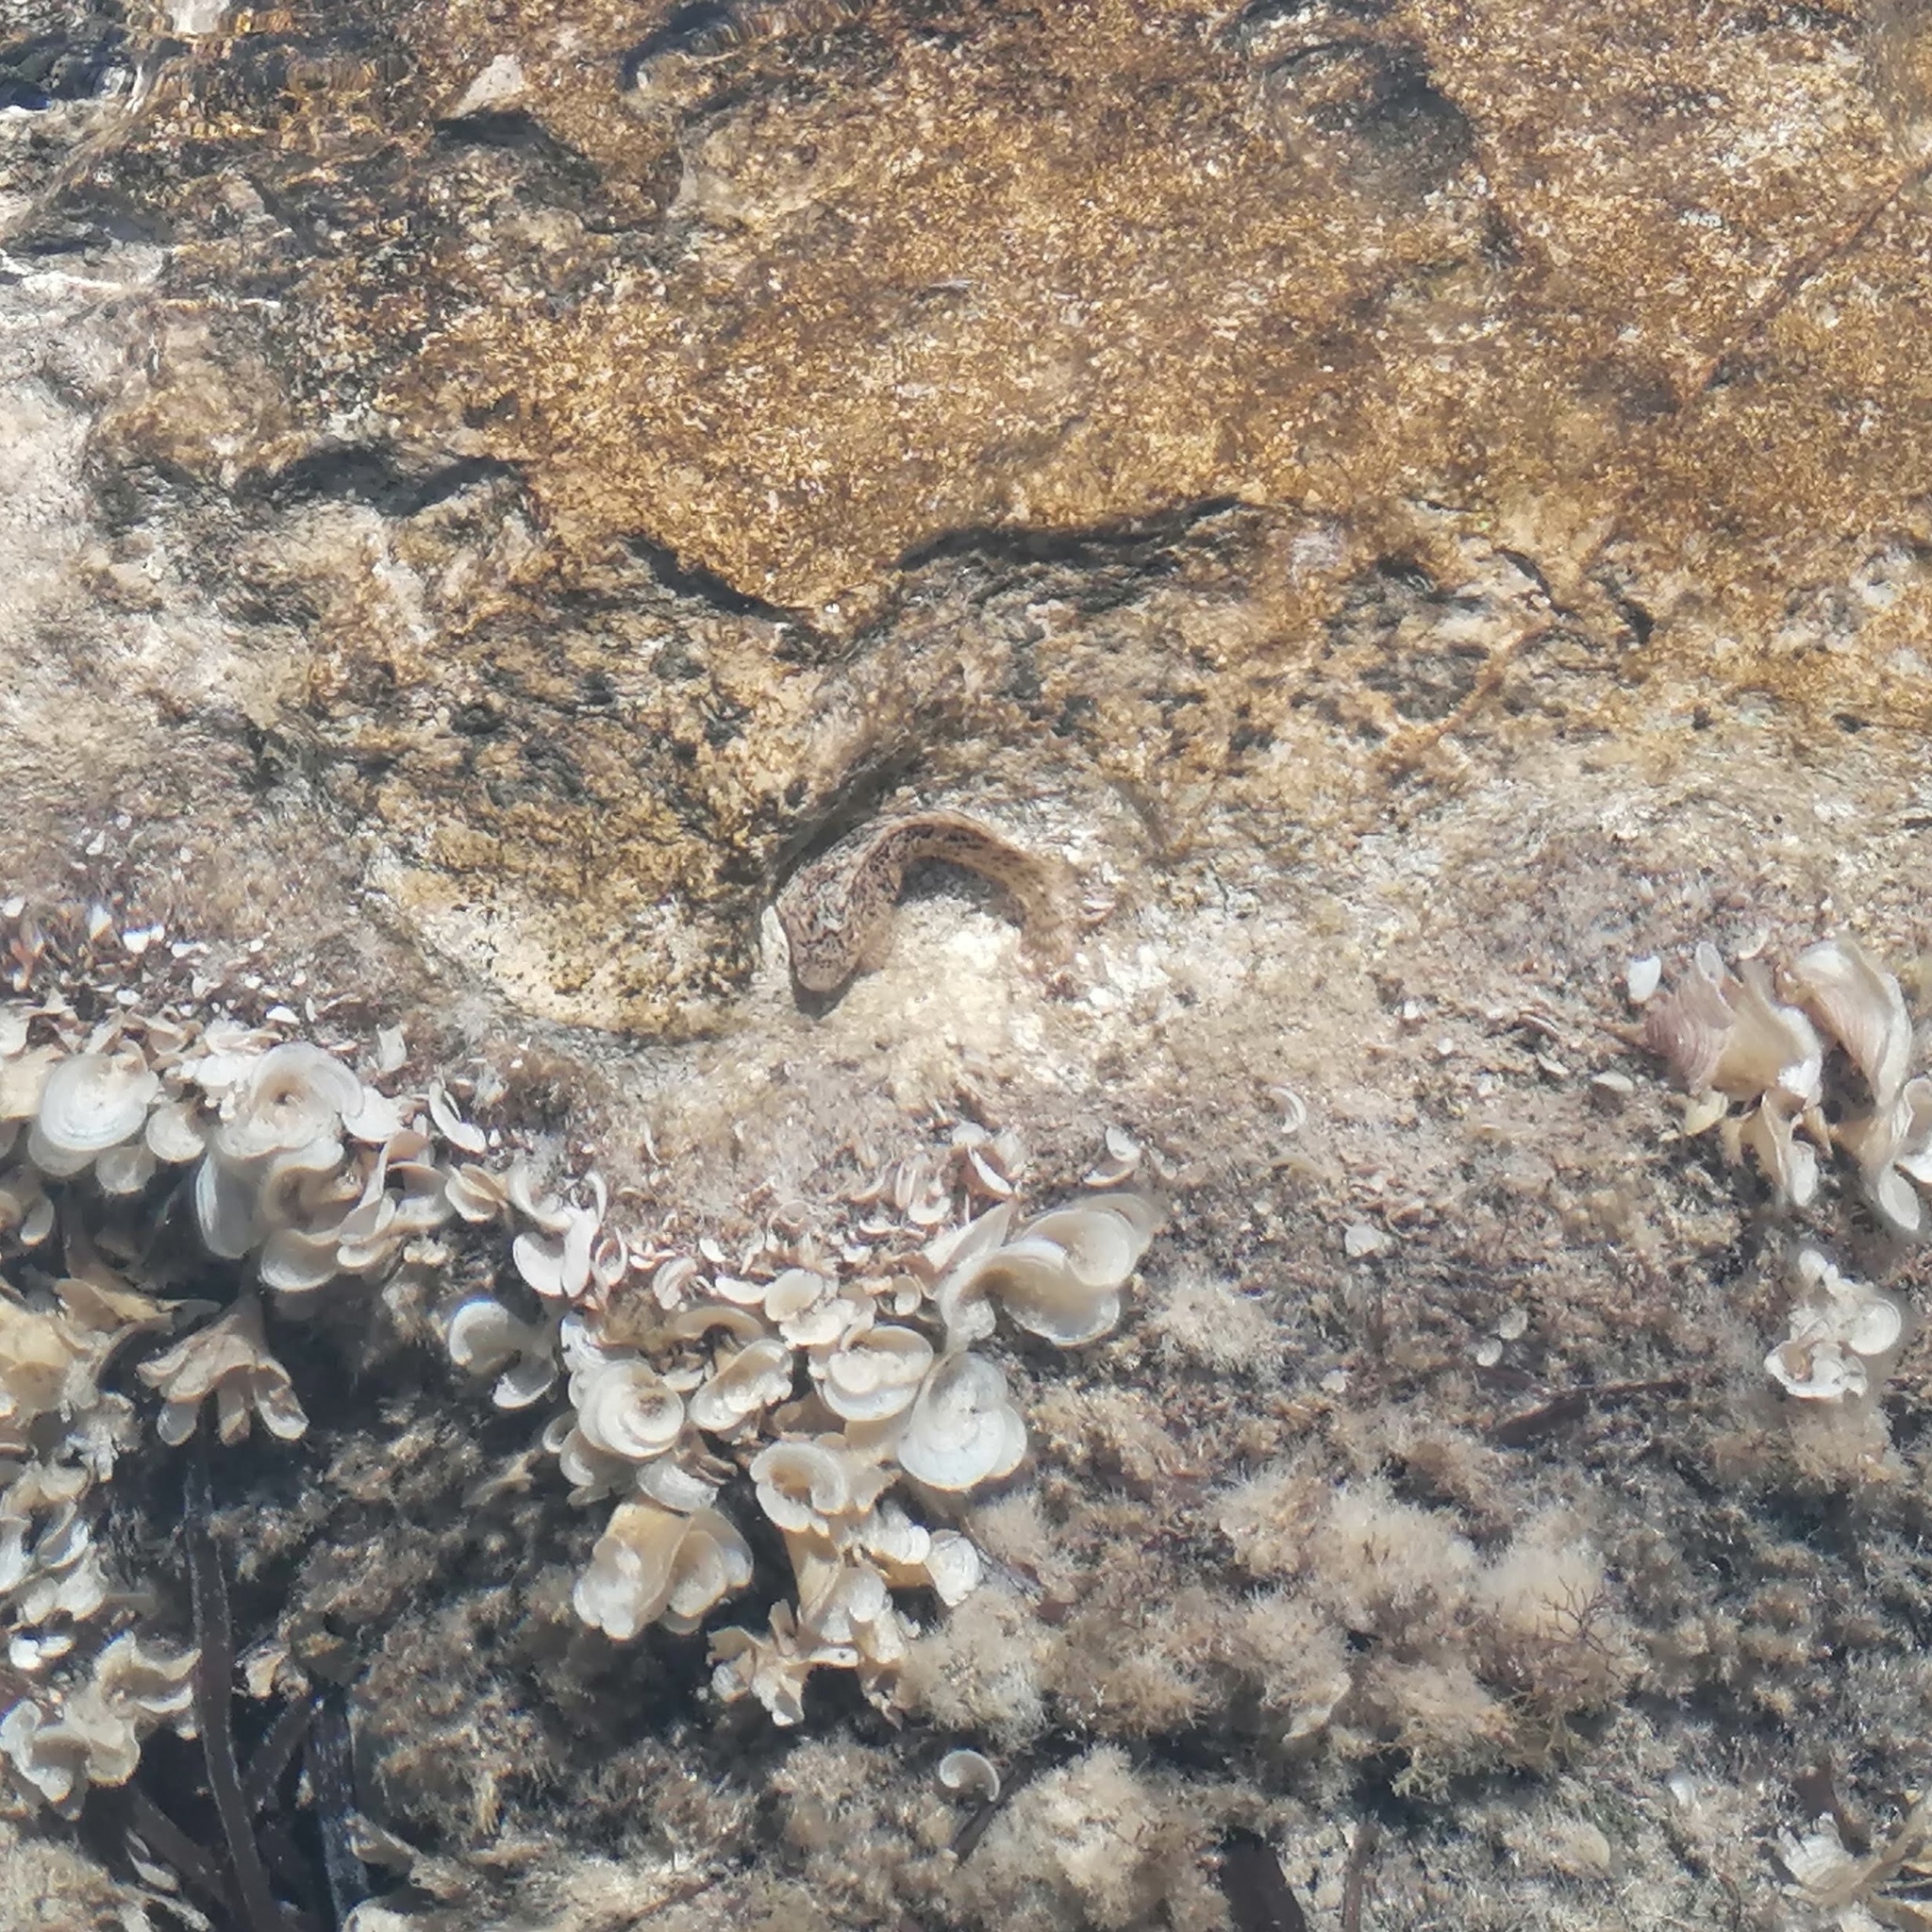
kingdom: Animalia
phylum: Chordata
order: Perciformes
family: Blenniidae
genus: Parablennius
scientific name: Parablennius sanguinolentus
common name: Black sea blenny
